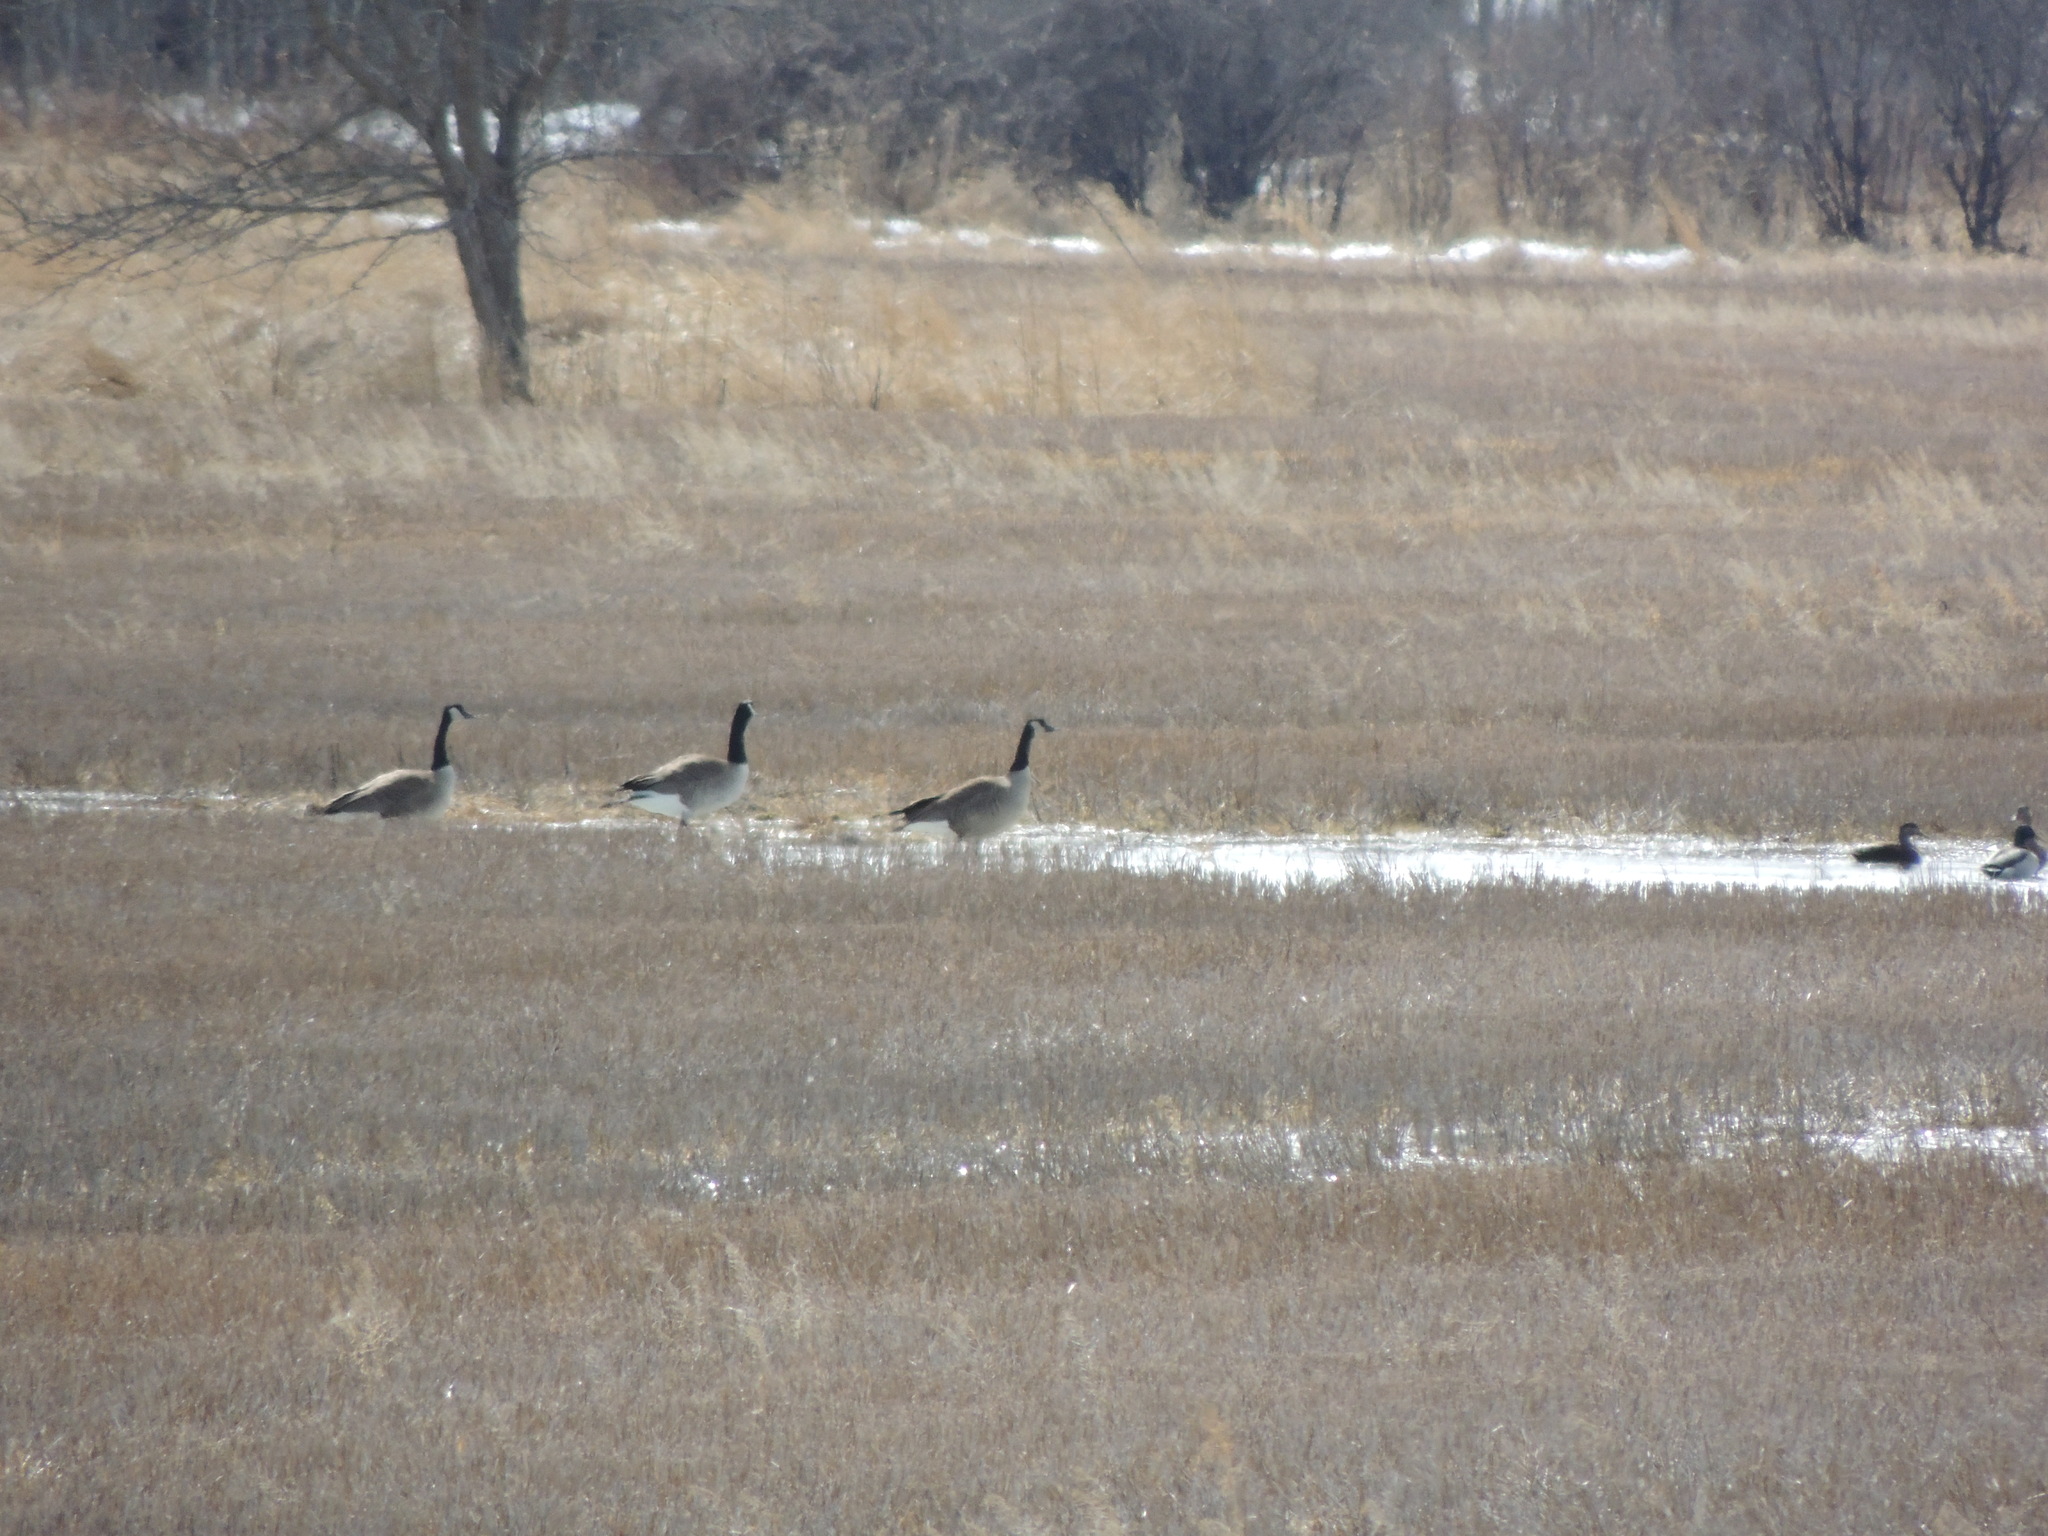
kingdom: Animalia
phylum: Chordata
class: Aves
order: Anseriformes
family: Anatidae
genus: Branta
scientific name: Branta canadensis
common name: Canada goose
